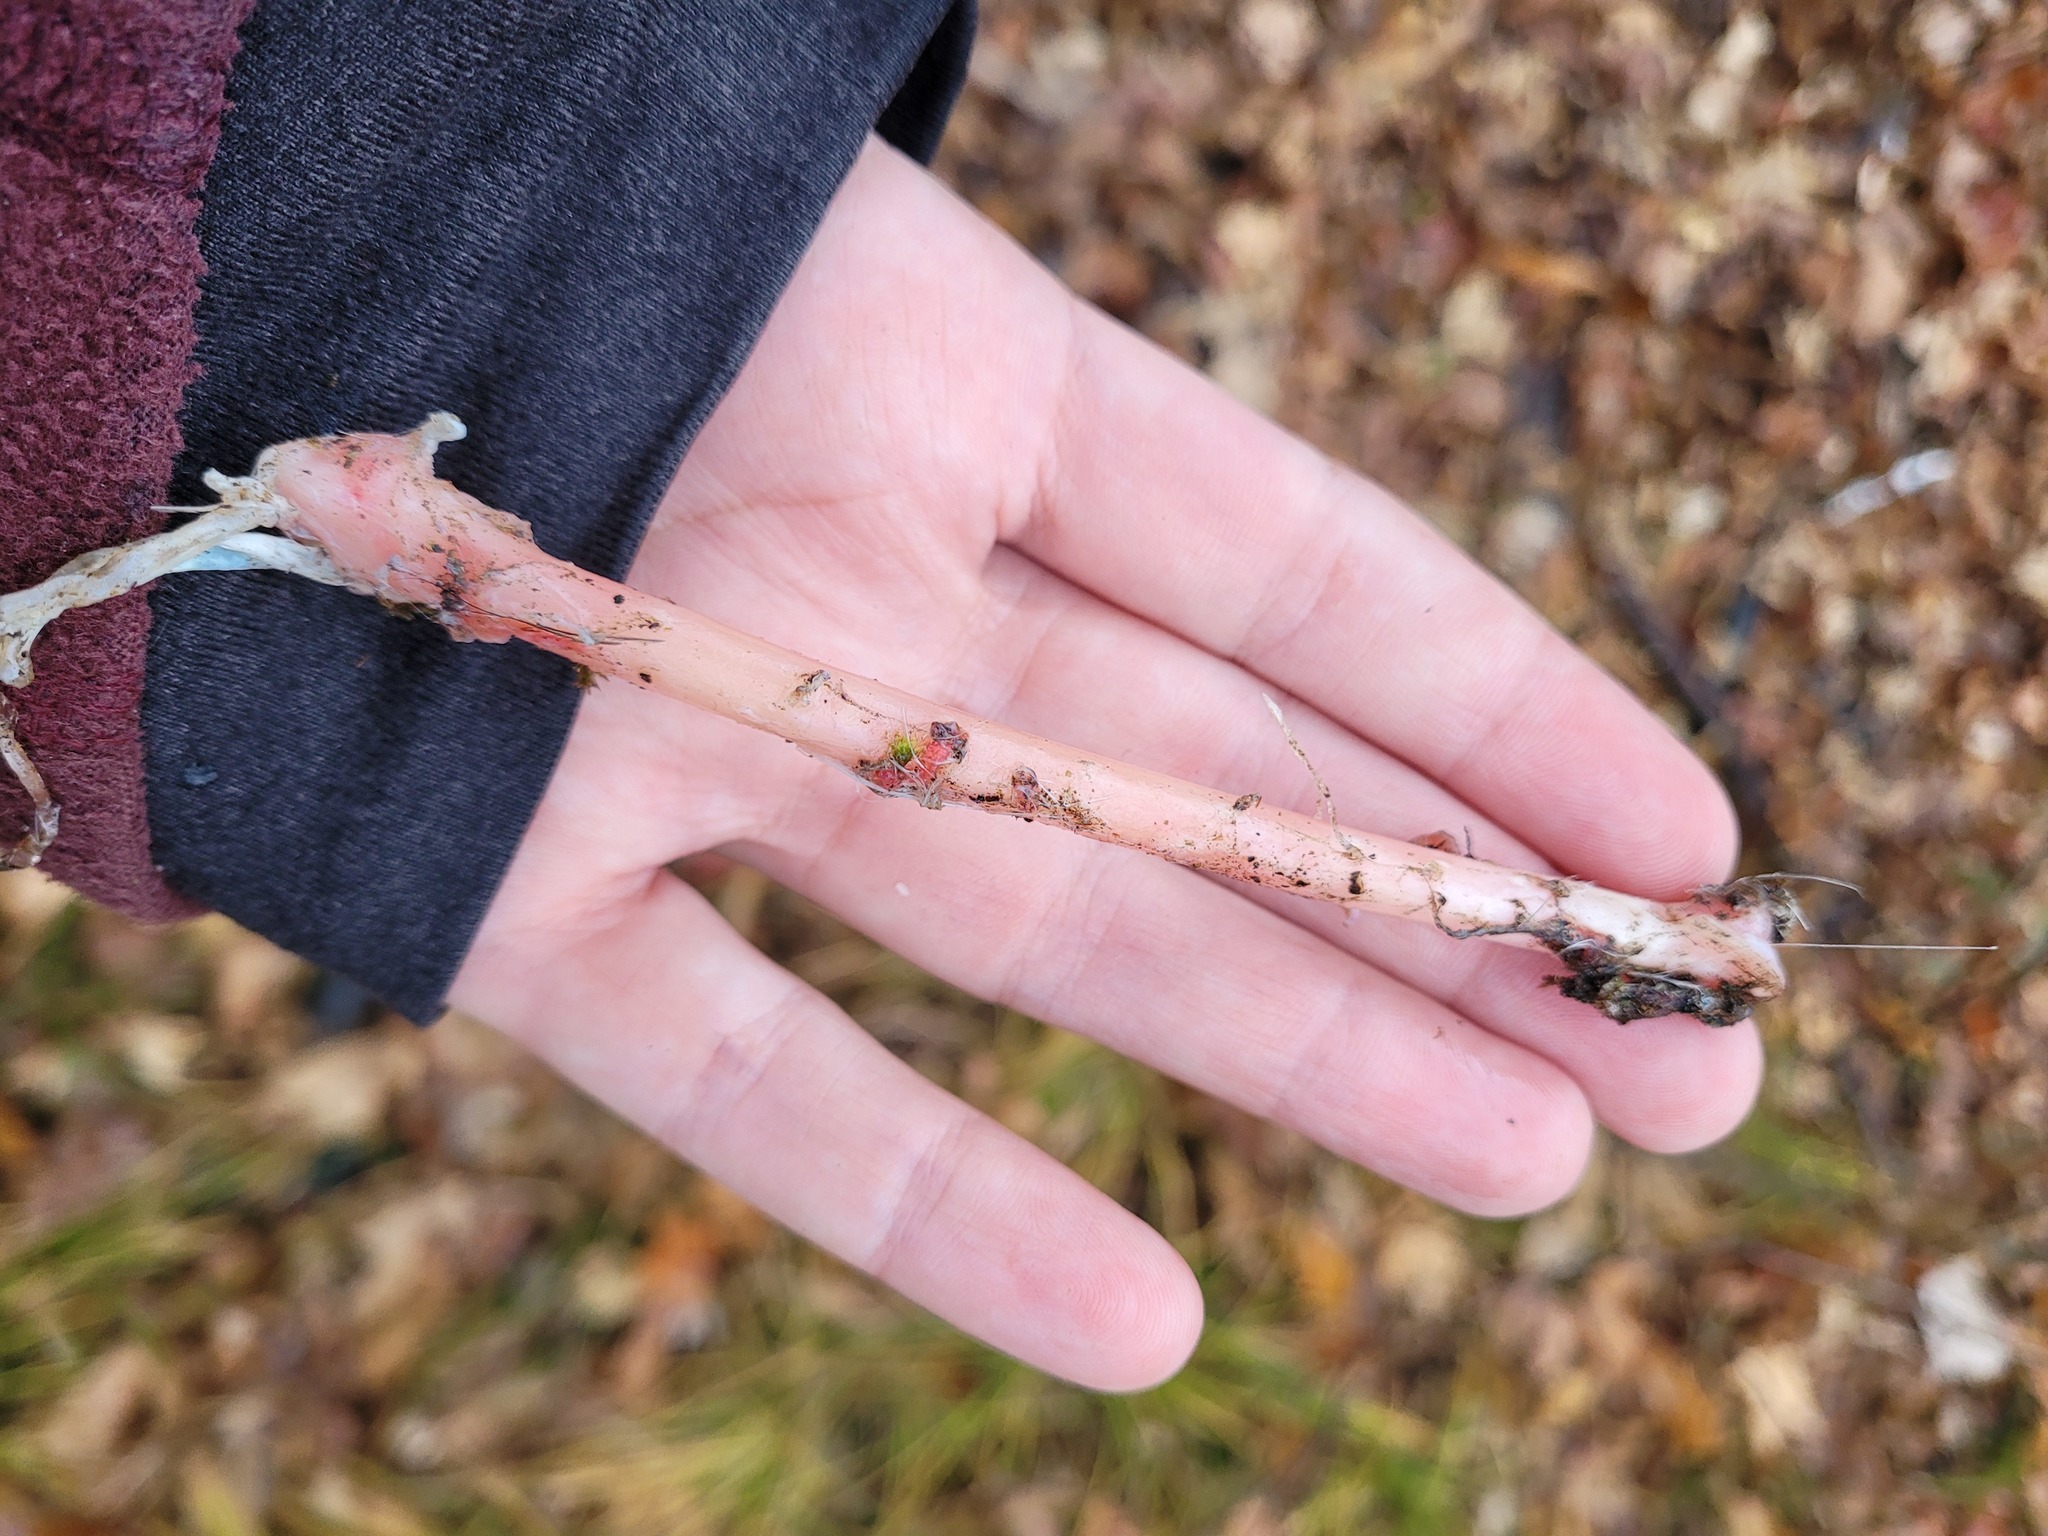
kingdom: Animalia
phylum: Chordata
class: Aves
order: Accipitriformes
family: Accipitridae
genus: Buteo
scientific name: Buteo jamaicensis
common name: Red-tailed hawk
